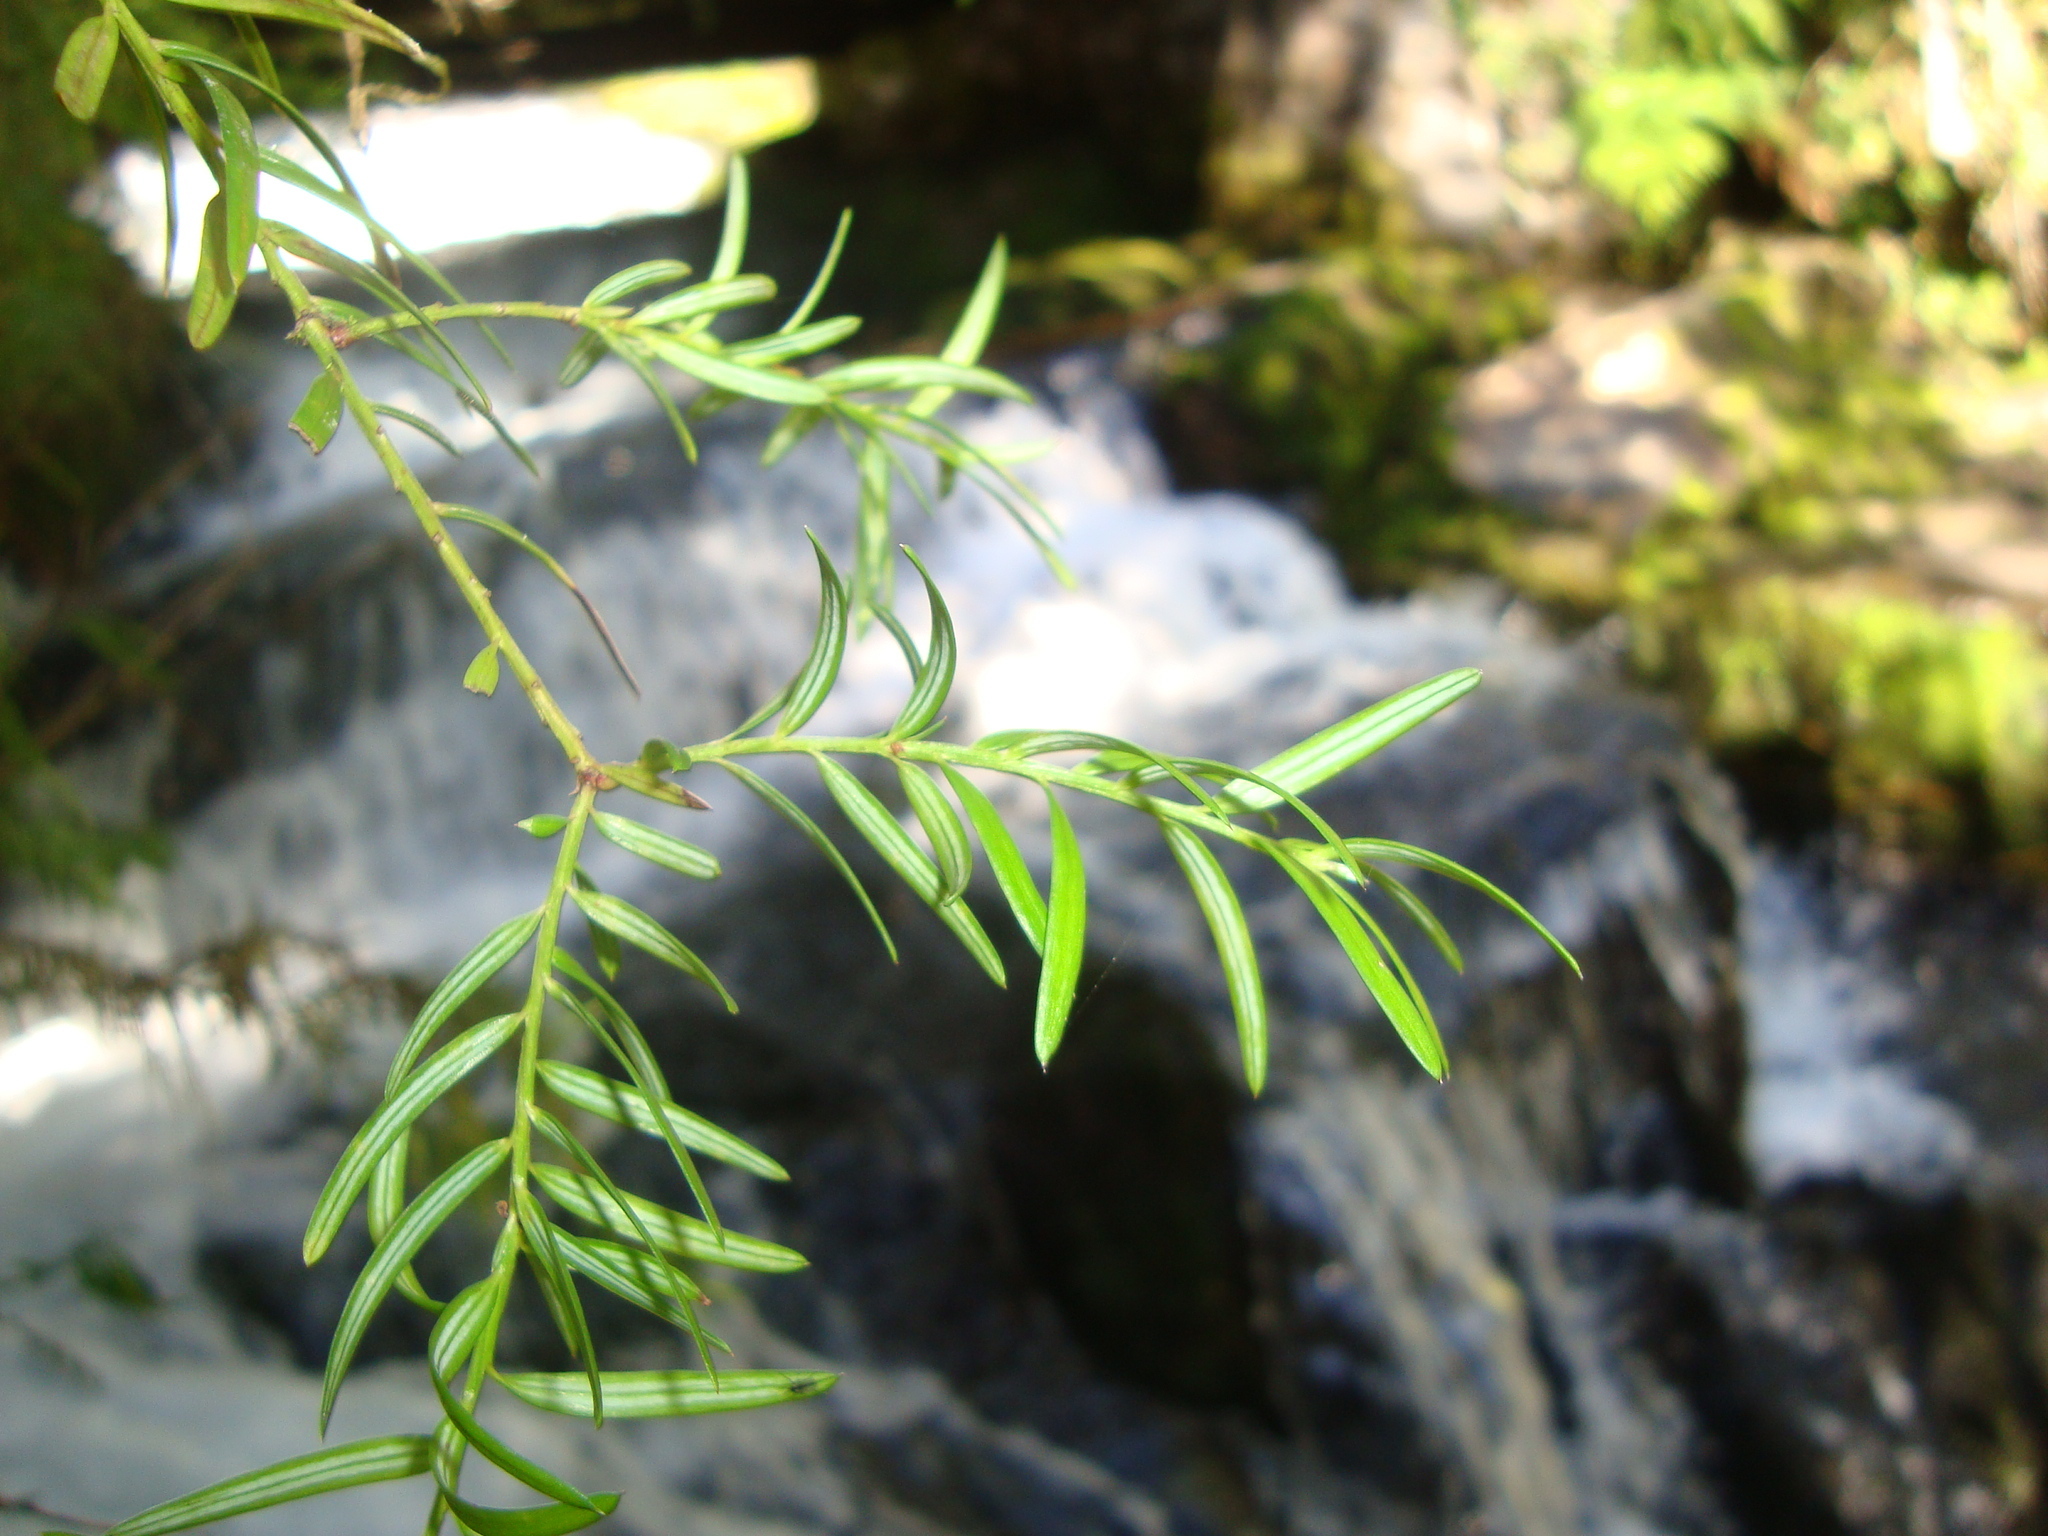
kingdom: Plantae
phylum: Tracheophyta
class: Pinopsida
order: Pinales
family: Podocarpaceae
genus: Saxegothaea
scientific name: Saxegothaea conspicua
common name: Prince albert's yew
